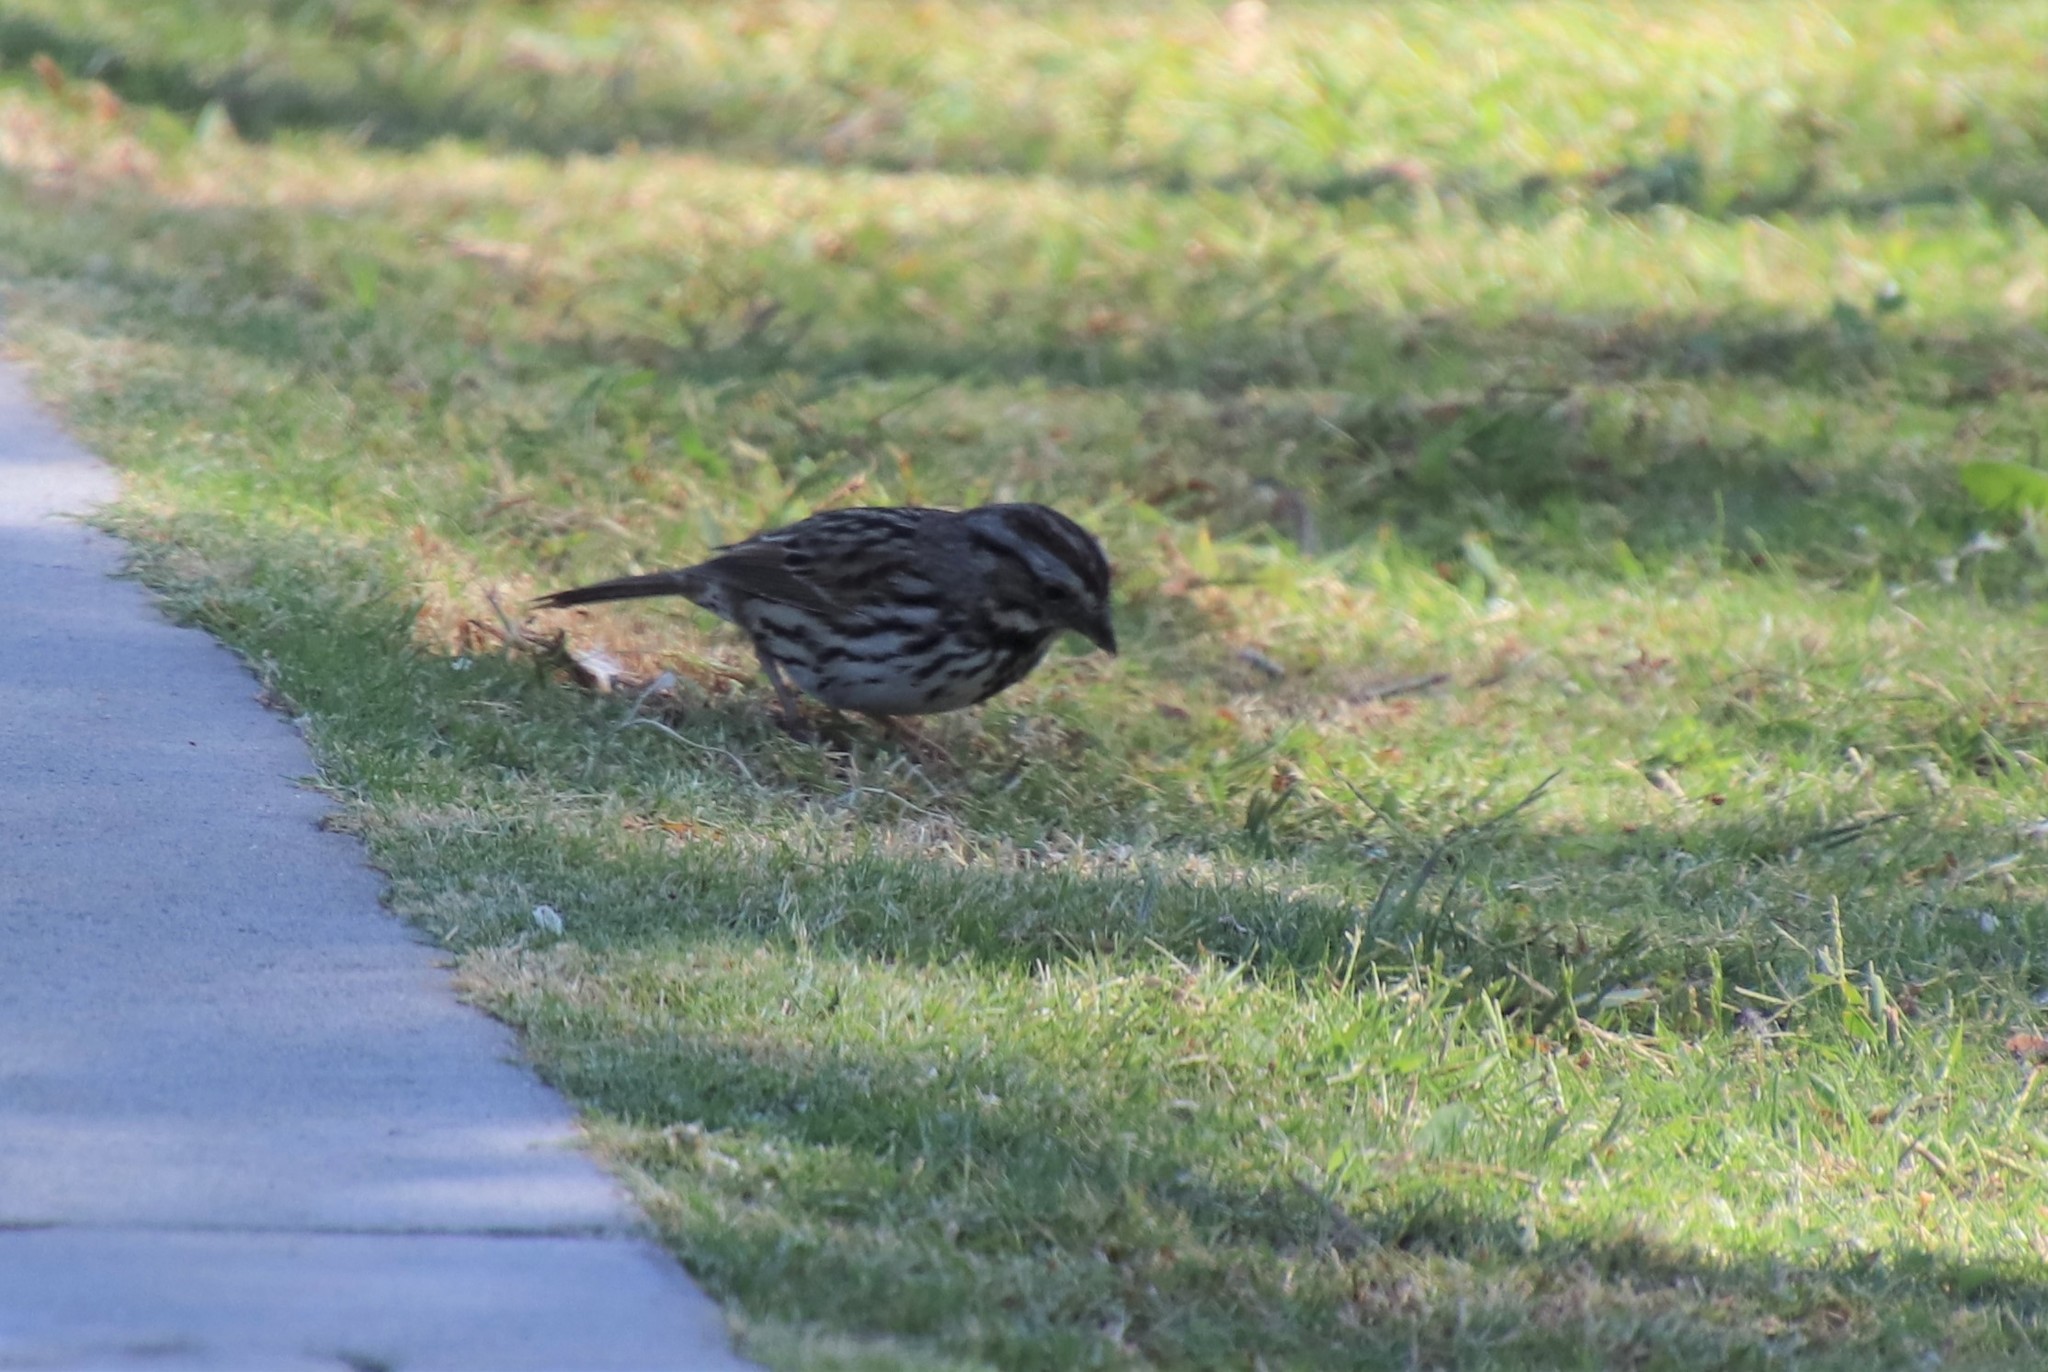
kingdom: Animalia
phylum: Chordata
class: Aves
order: Passeriformes
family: Passerellidae
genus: Melospiza
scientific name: Melospiza melodia
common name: Song sparrow
